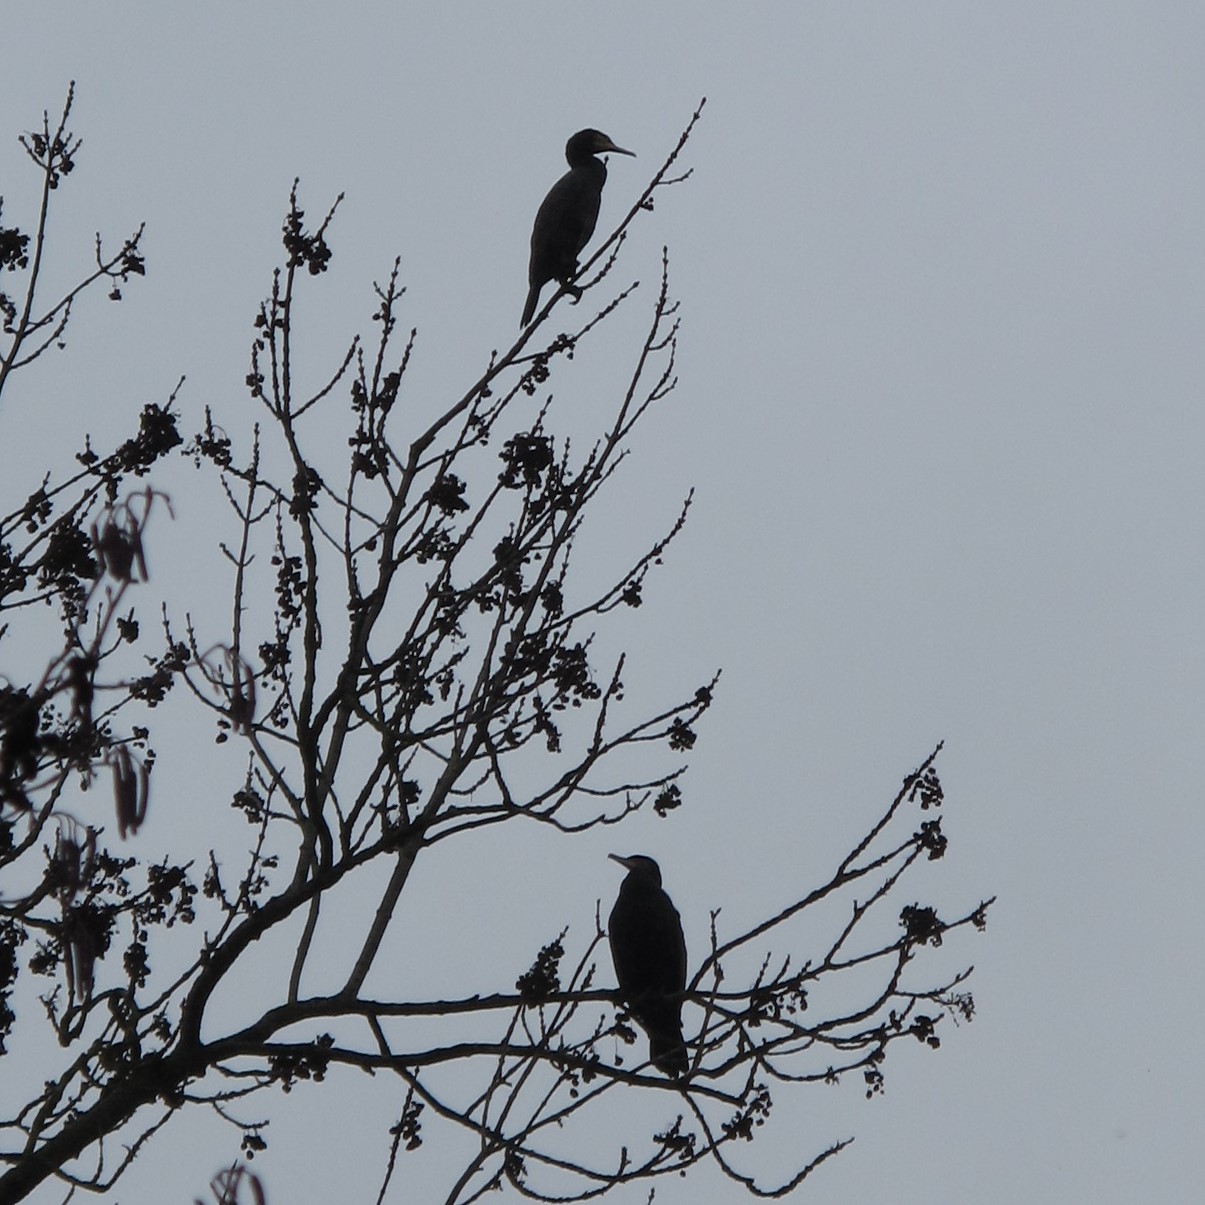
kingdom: Animalia
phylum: Chordata
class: Aves
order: Suliformes
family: Phalacrocoracidae
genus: Phalacrocorax
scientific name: Phalacrocorax carbo
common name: Great cormorant
